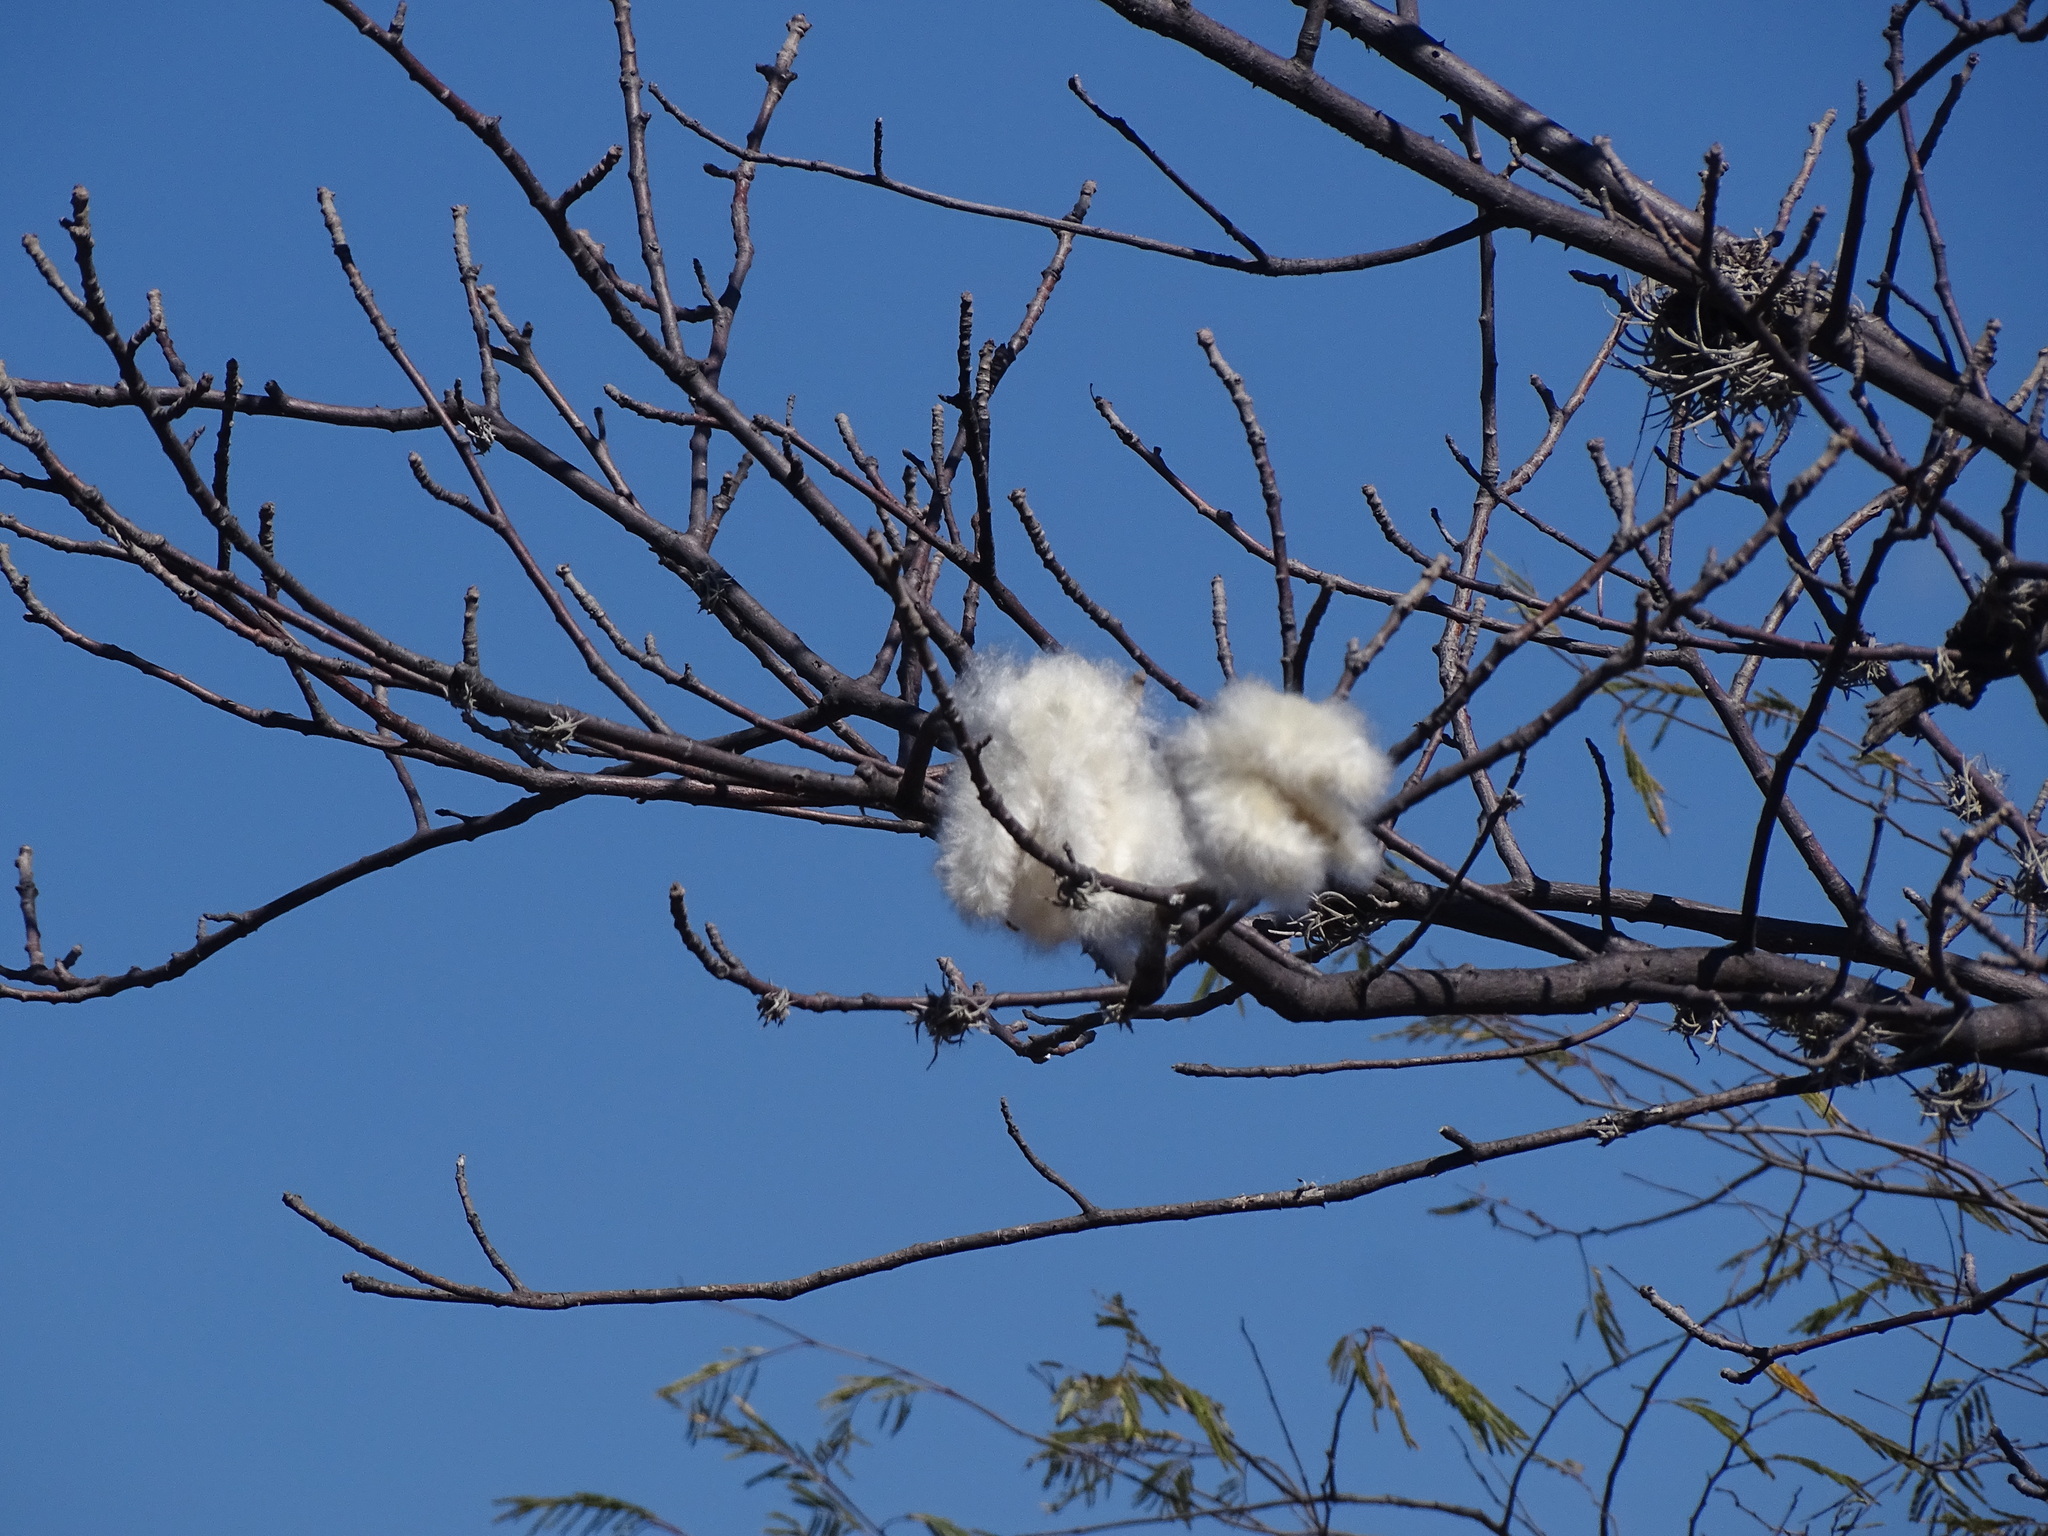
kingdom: Plantae
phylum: Tracheophyta
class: Magnoliopsida
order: Malvales
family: Malvaceae
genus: Ceiba
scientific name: Ceiba aesculifolia
